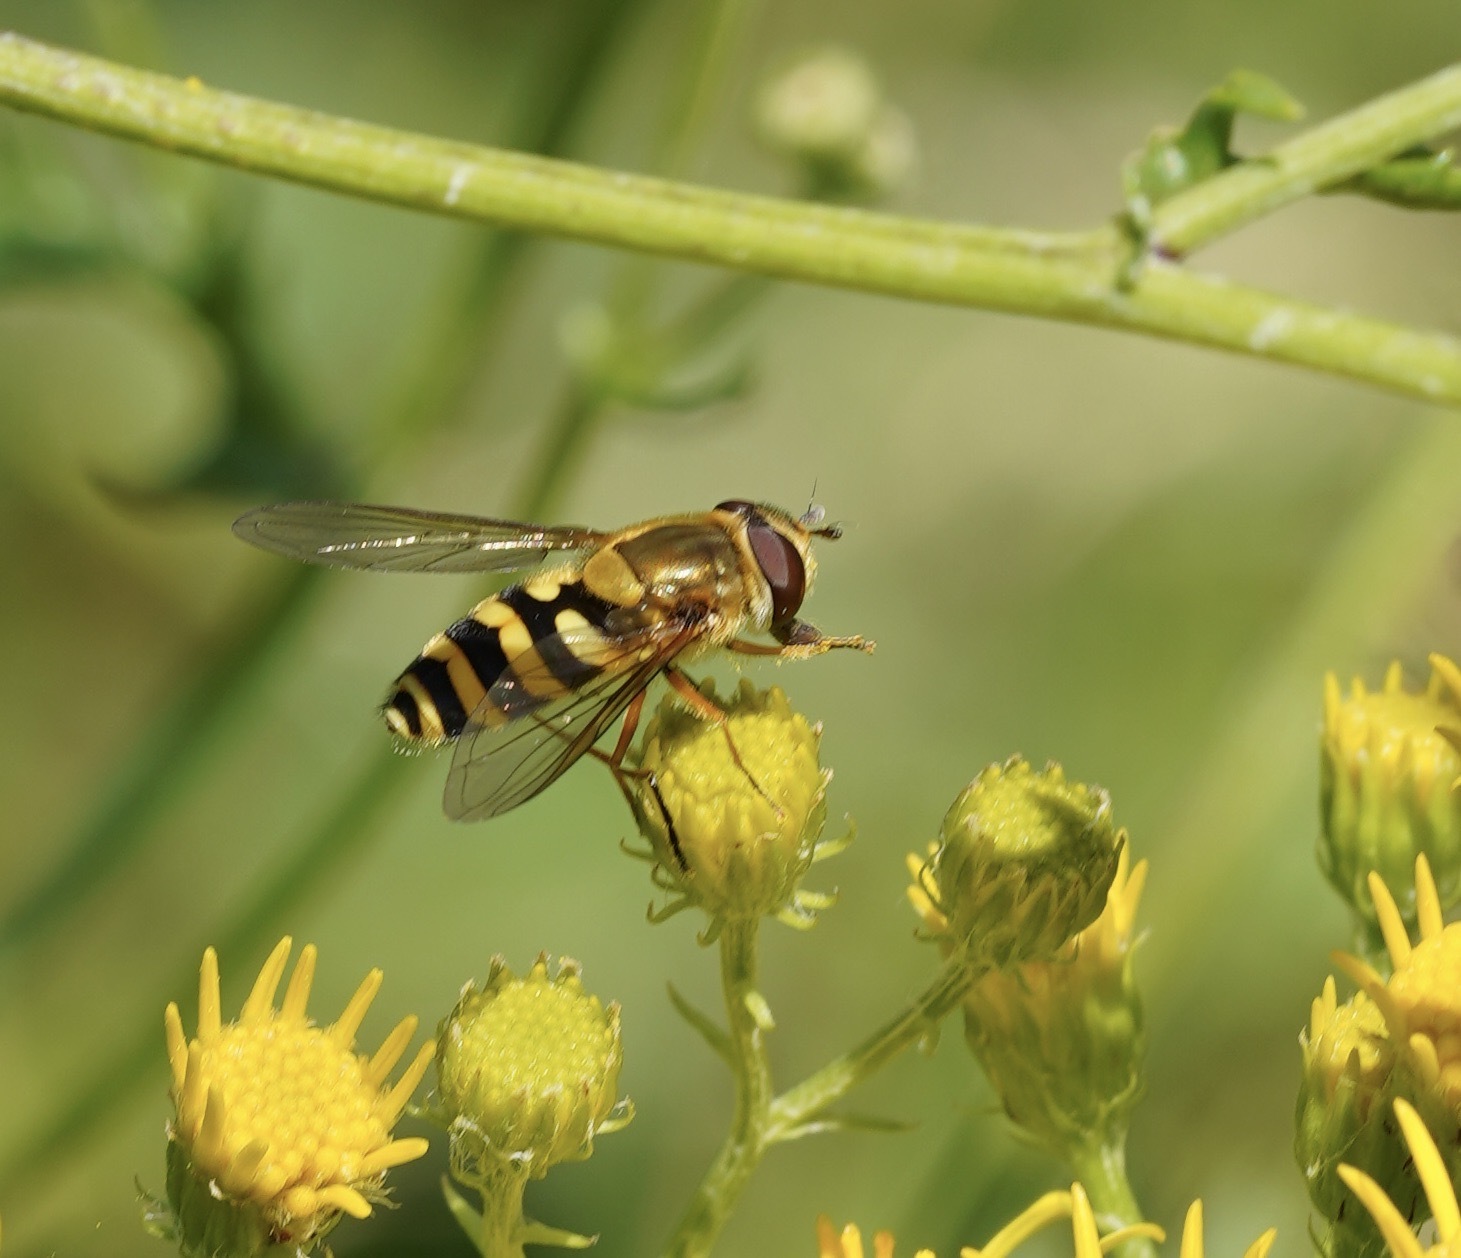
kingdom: Animalia
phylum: Arthropoda
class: Insecta
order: Diptera
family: Syrphidae
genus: Syrphus
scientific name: Syrphus ribesii
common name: Common flower fly
